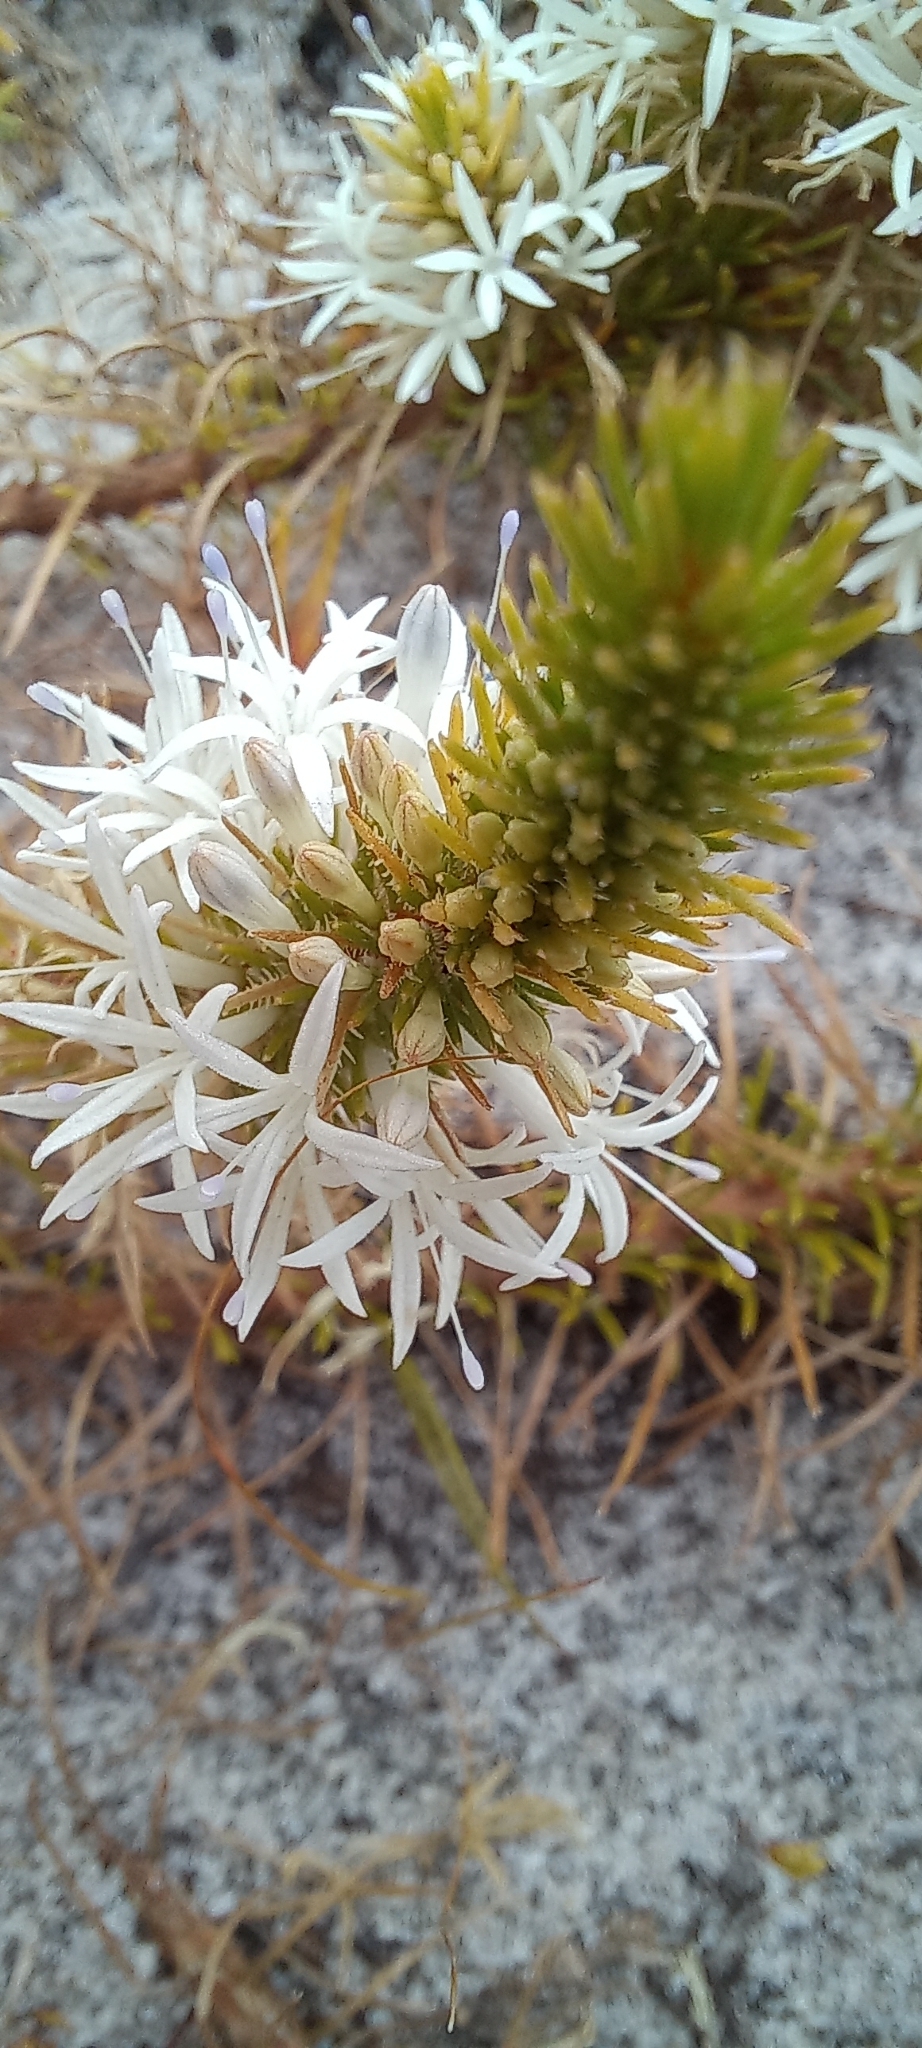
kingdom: Plantae
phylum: Tracheophyta
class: Magnoliopsida
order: Asterales
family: Campanulaceae
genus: Merciera
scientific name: Merciera leptoloba
